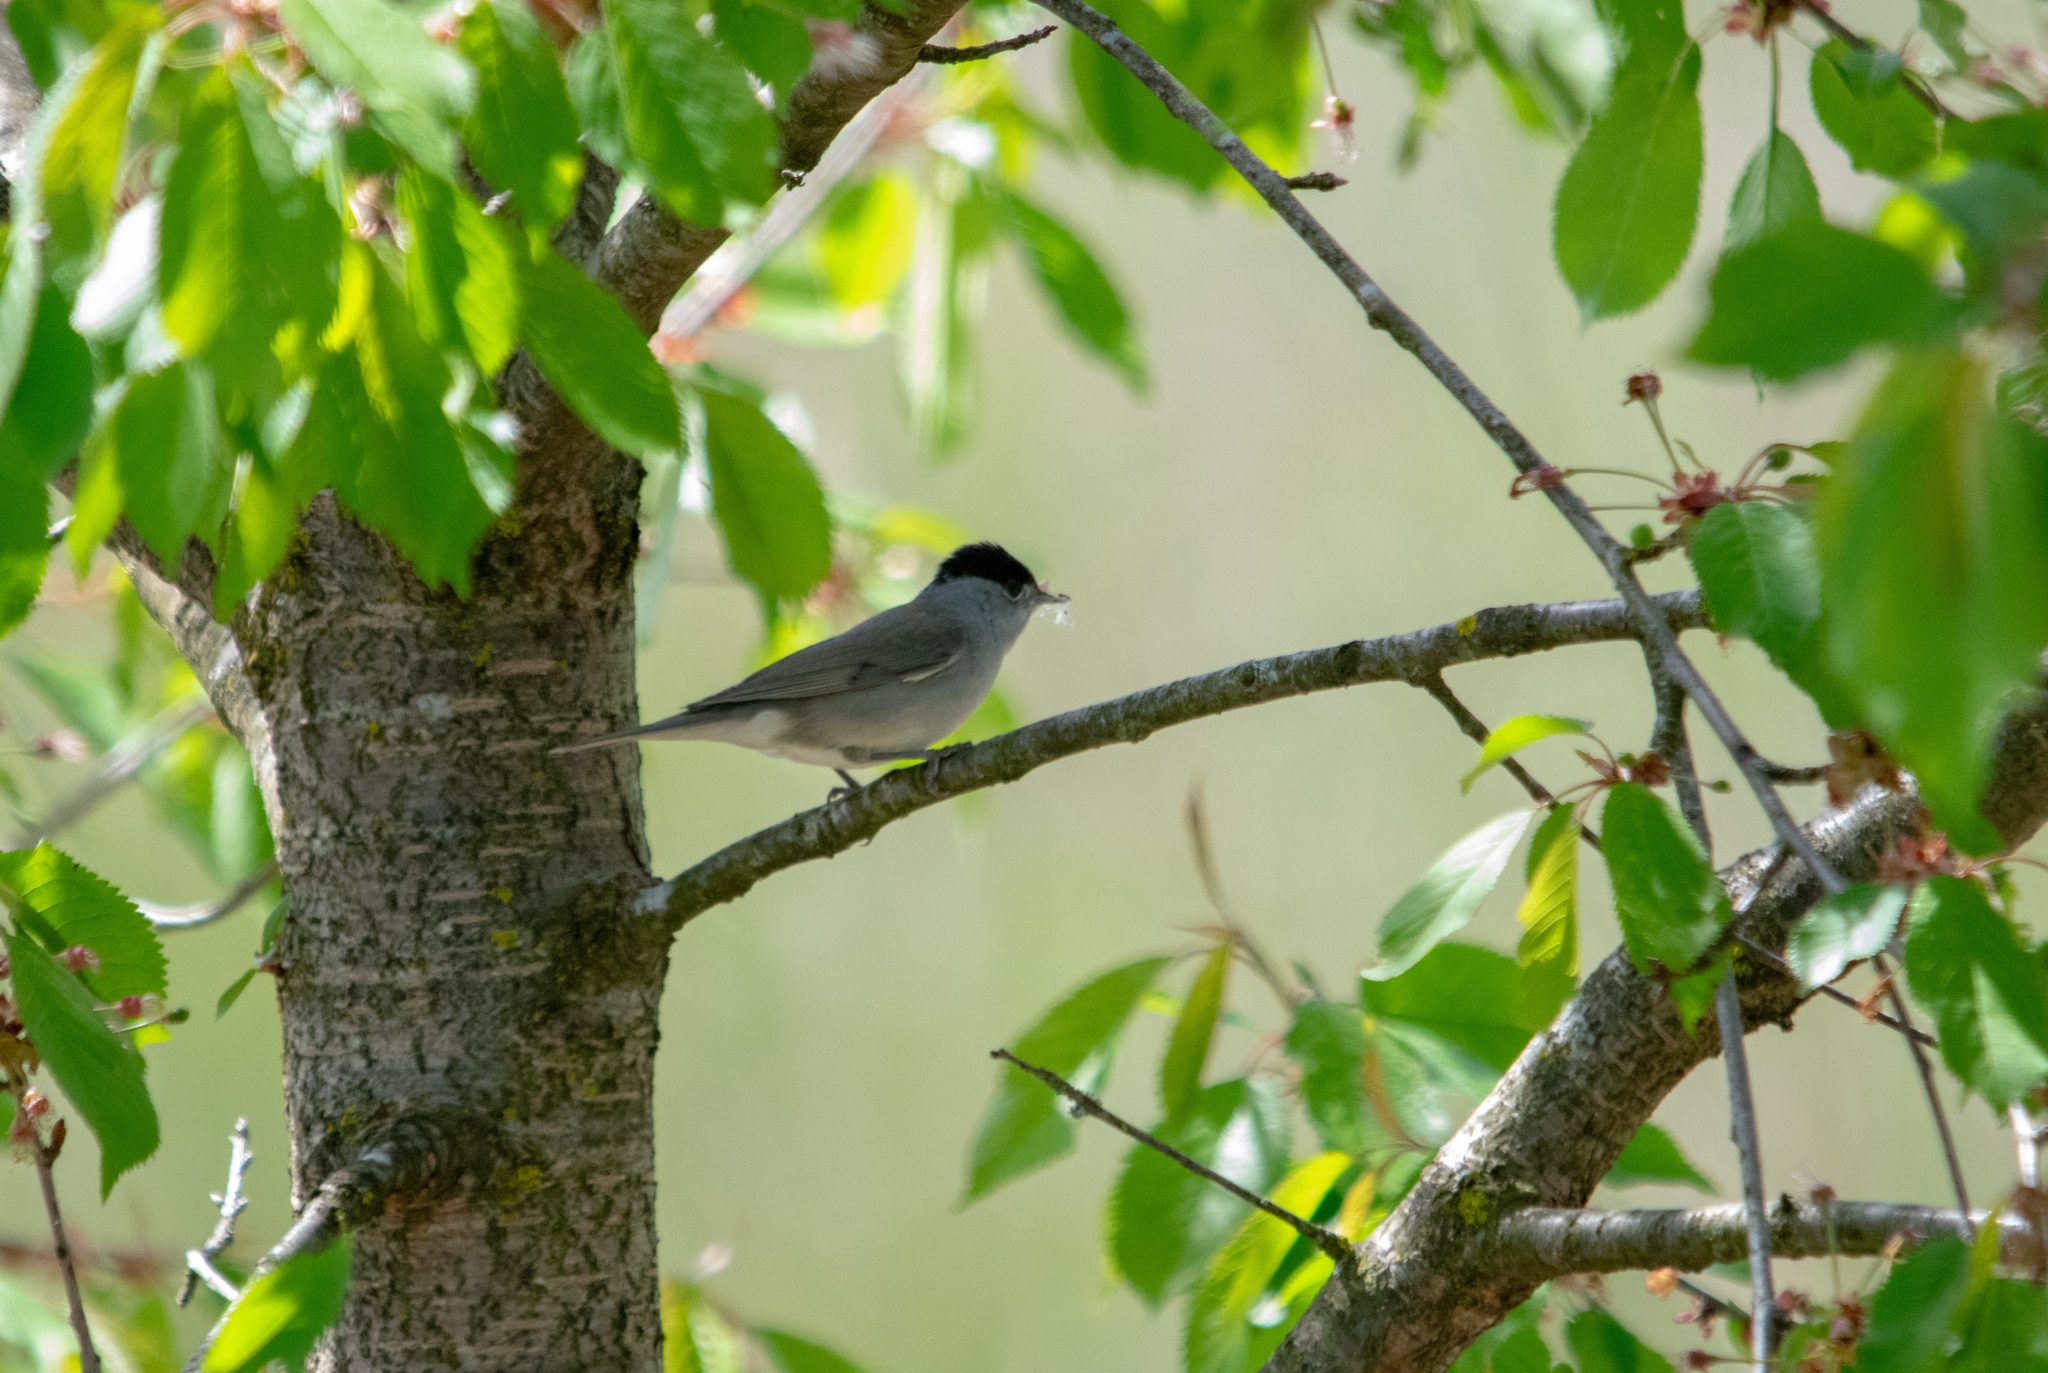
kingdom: Animalia
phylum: Chordata
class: Aves
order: Passeriformes
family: Sylviidae
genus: Sylvia
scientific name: Sylvia atricapilla
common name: Eurasian blackcap
